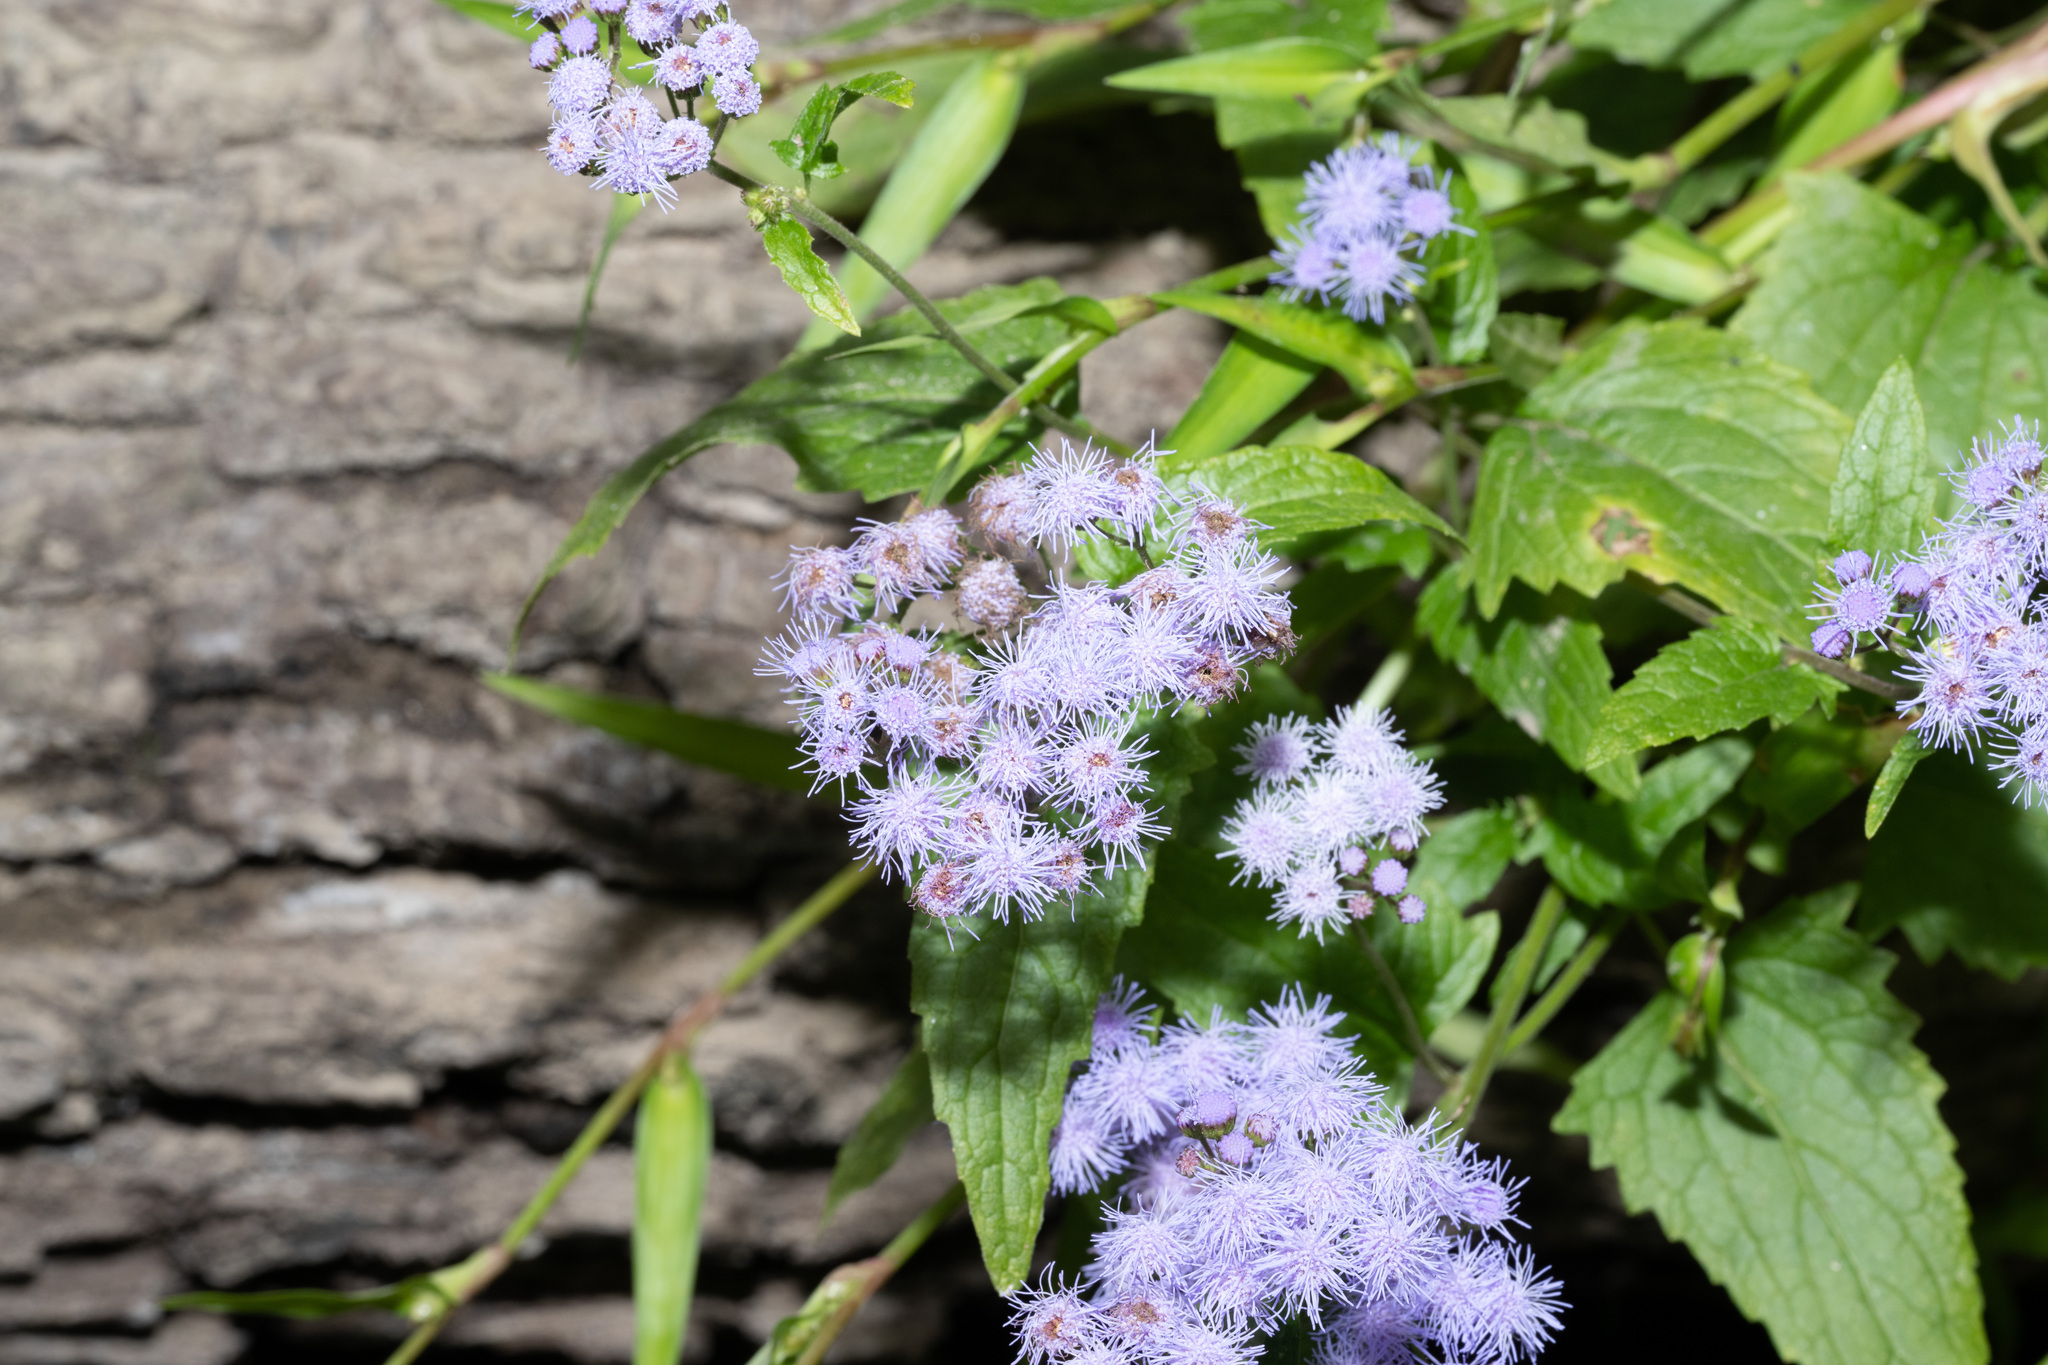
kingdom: Plantae
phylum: Tracheophyta
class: Magnoliopsida
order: Asterales
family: Asteraceae
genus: Conoclinium
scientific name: Conoclinium coelestinum
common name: Blue mistflower
